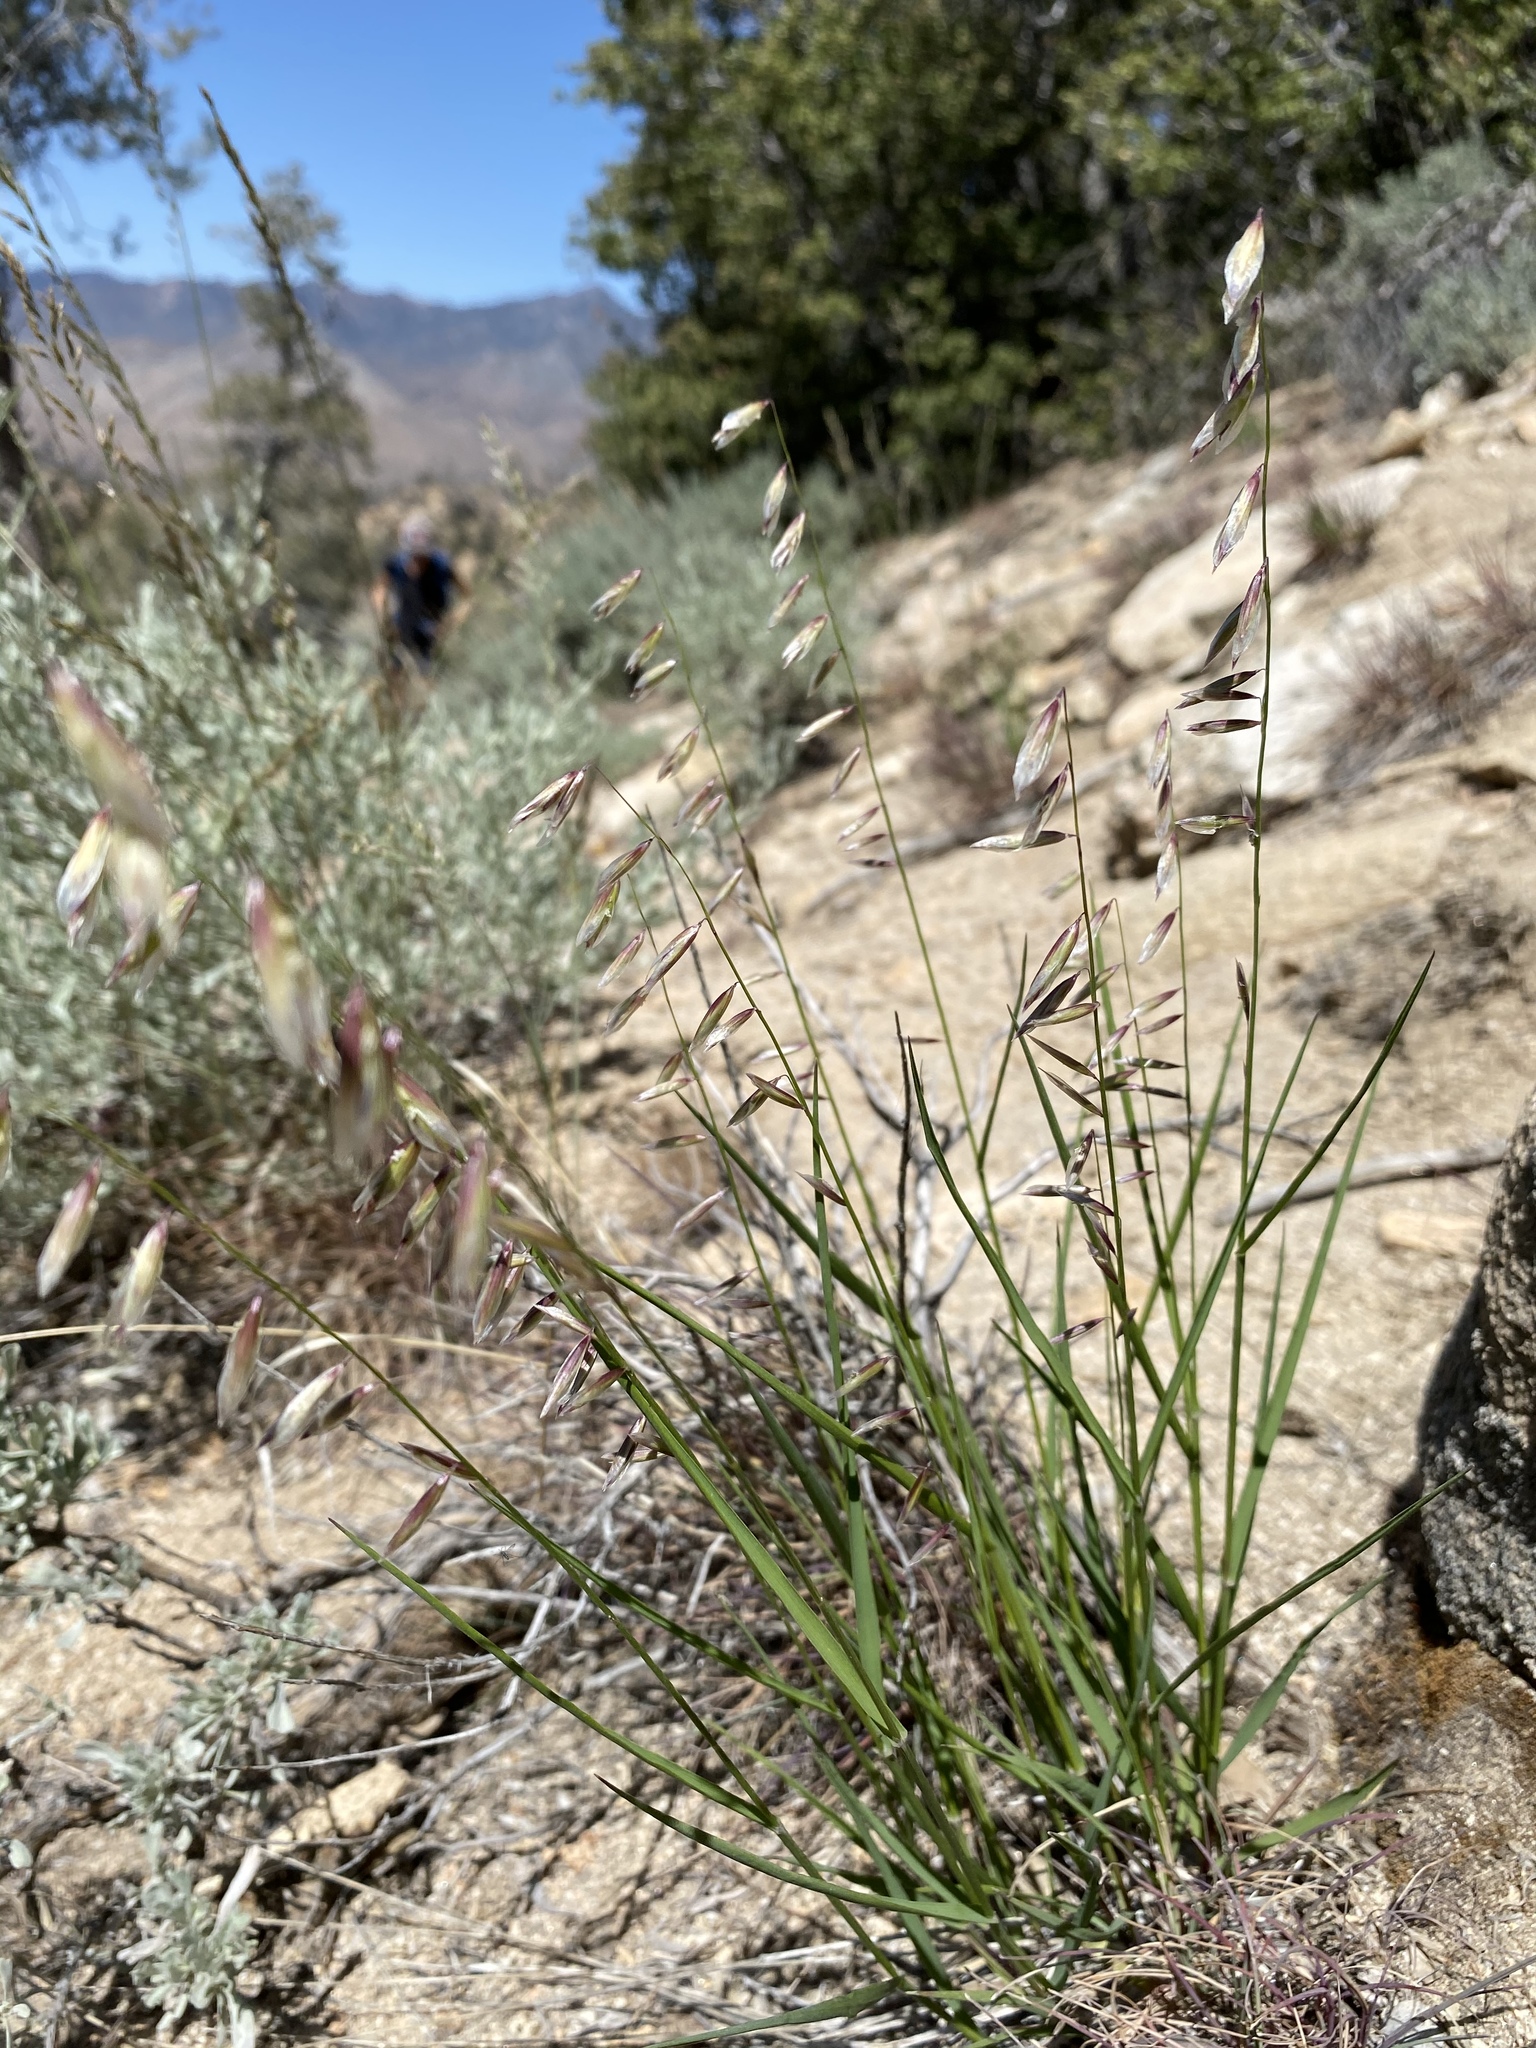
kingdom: Plantae
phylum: Tracheophyta
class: Liliopsida
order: Poales
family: Poaceae
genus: Melica
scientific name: Melica stricta
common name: Rock melic
